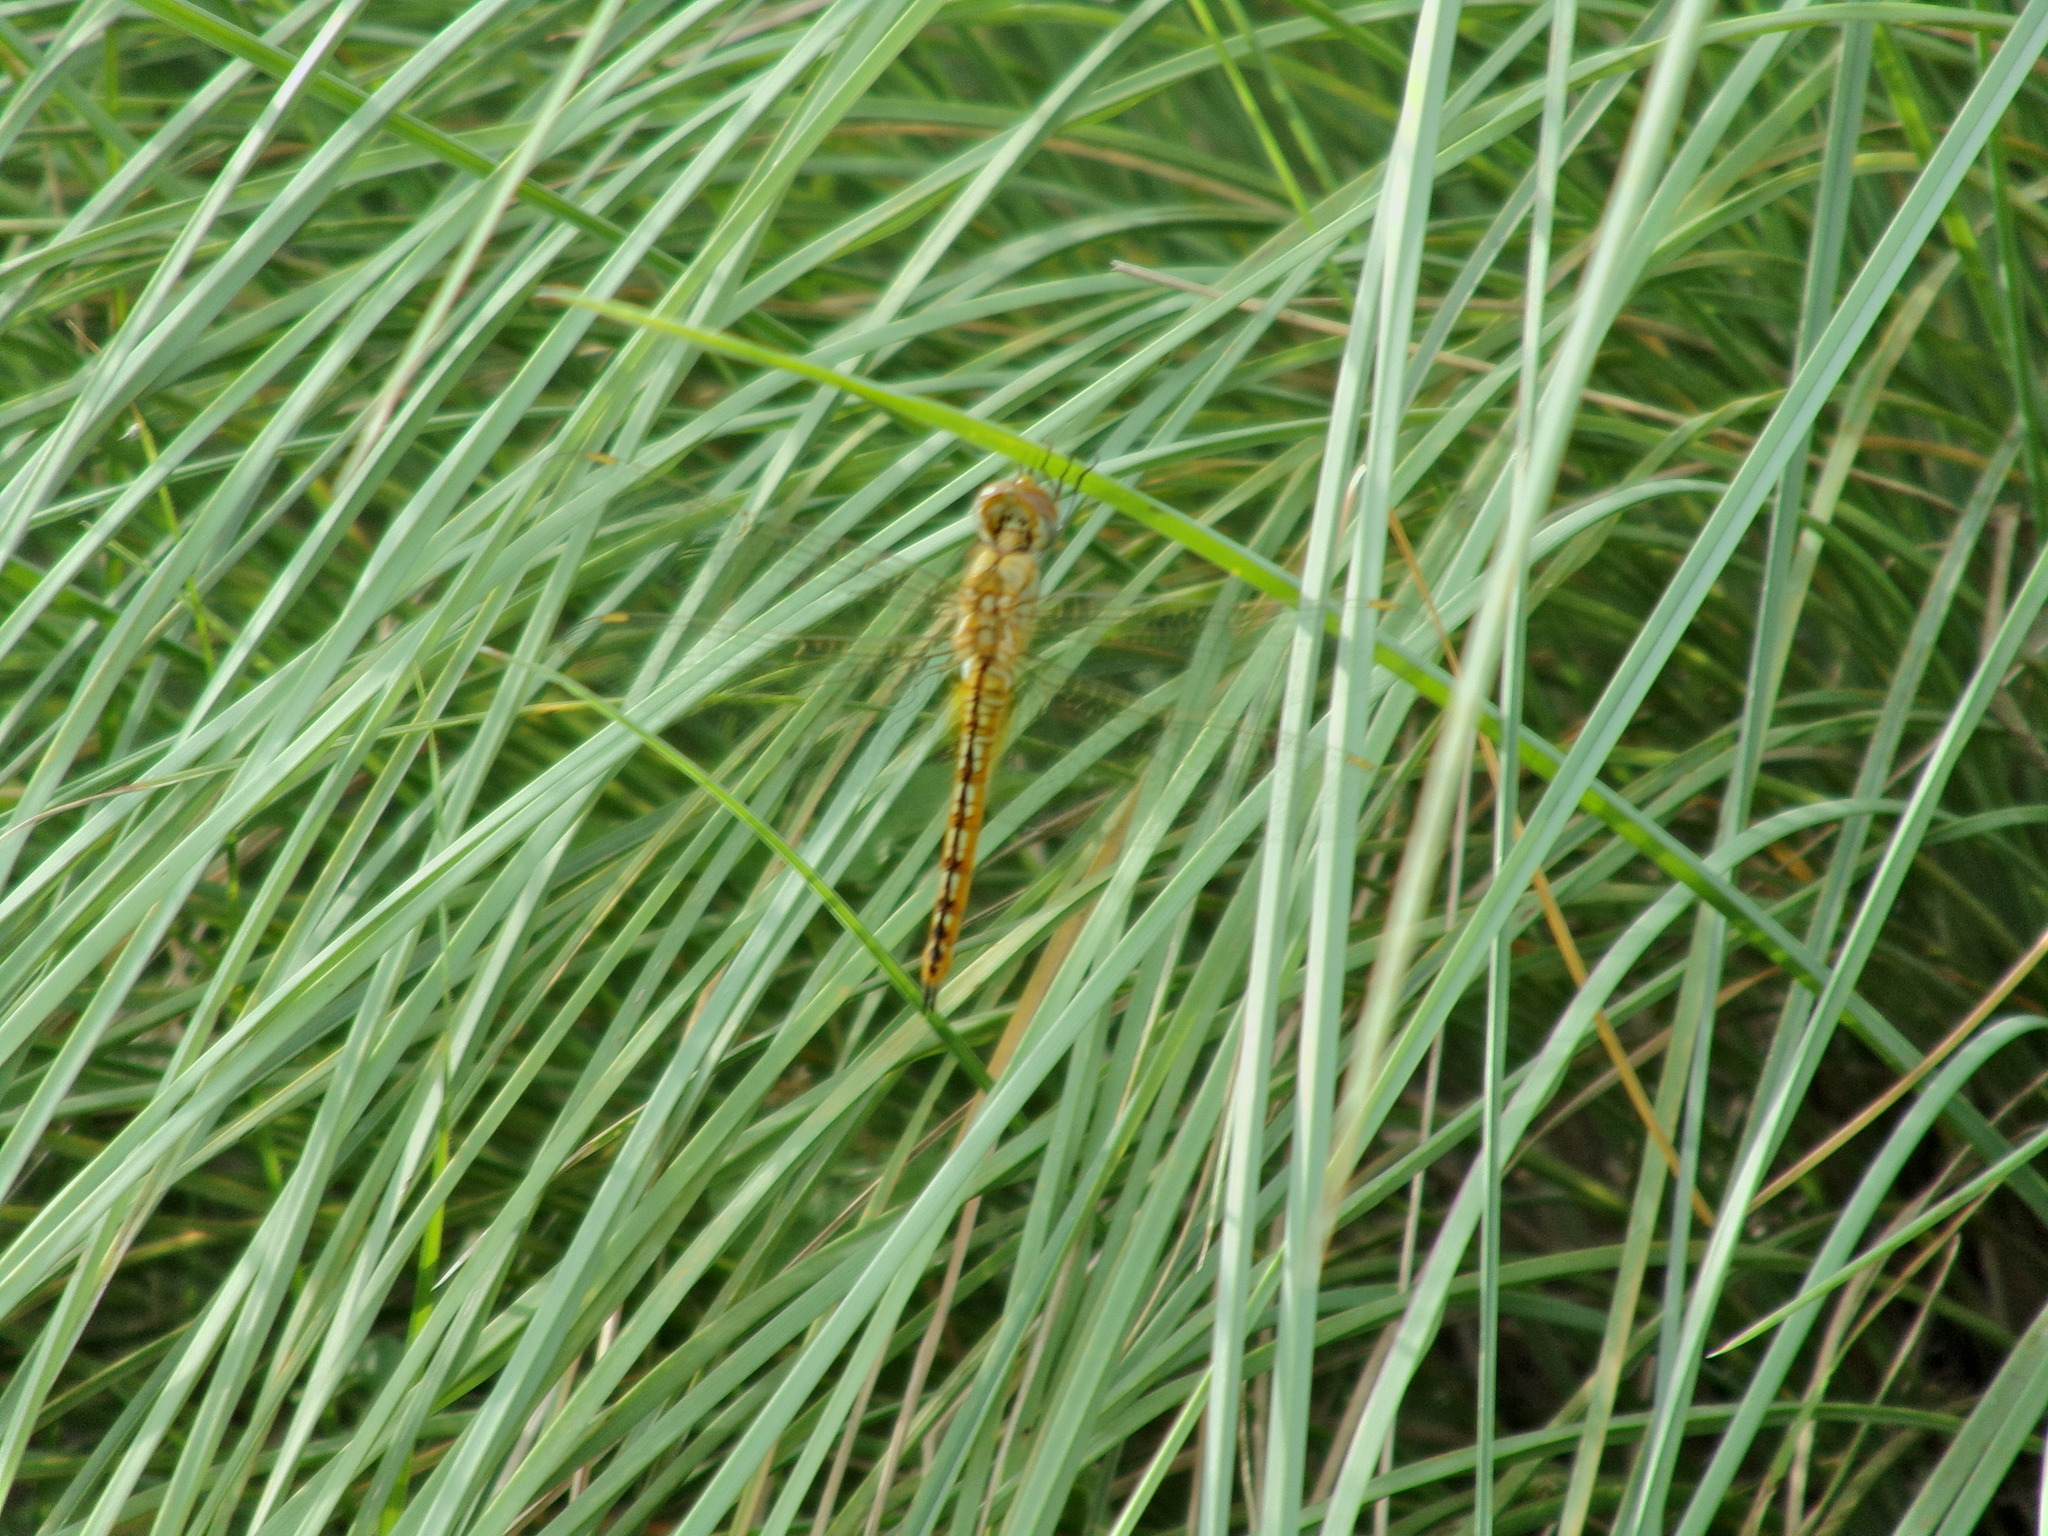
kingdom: Animalia
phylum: Arthropoda
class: Insecta
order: Odonata
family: Libellulidae
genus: Pantala
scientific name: Pantala flavescens
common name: Wandering glider
